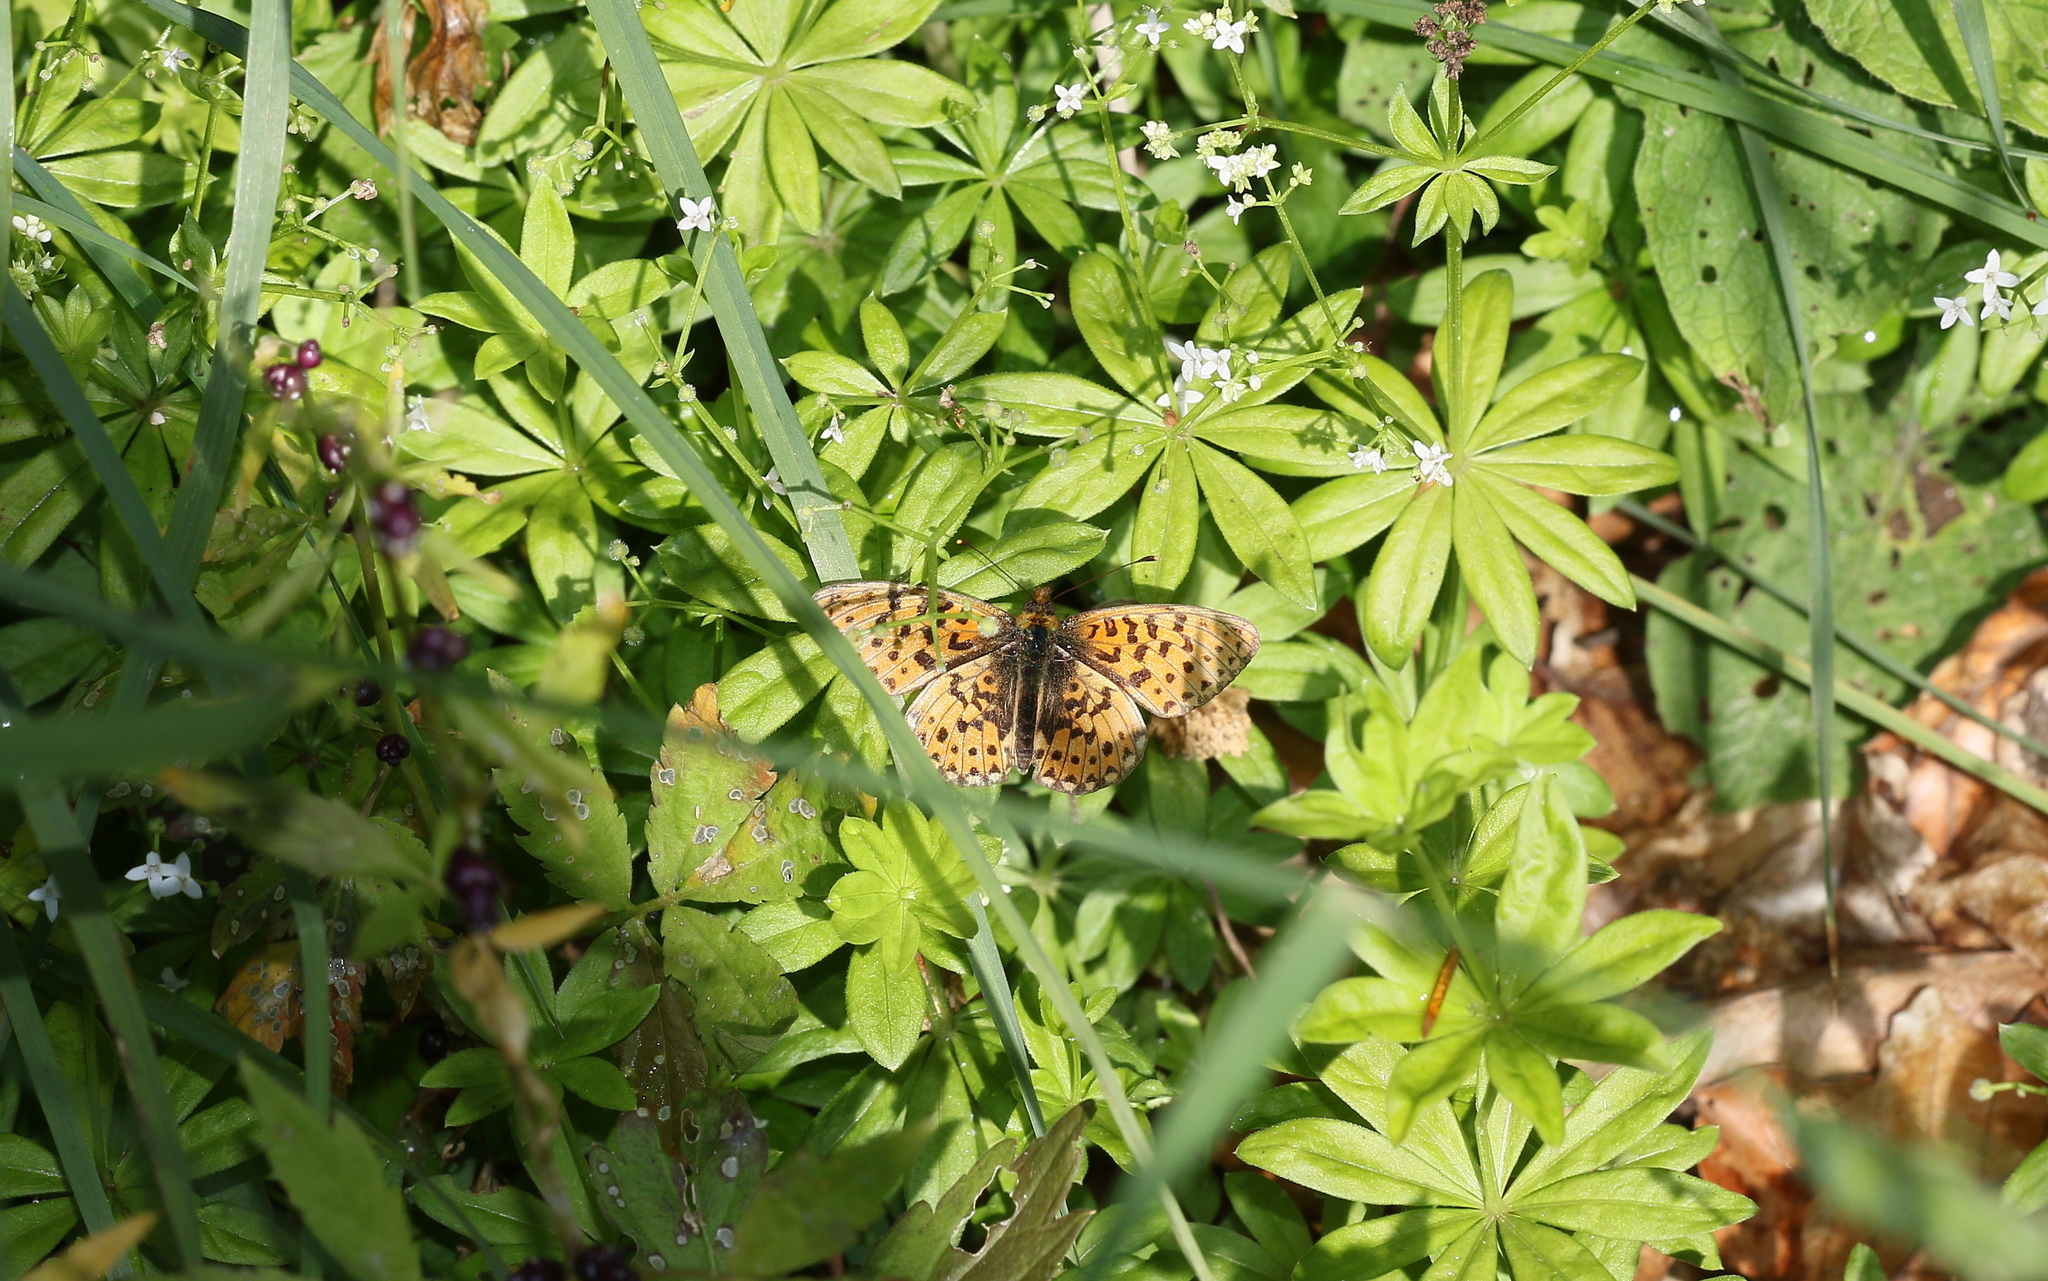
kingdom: Animalia
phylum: Arthropoda
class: Insecta
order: Lepidoptera
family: Nymphalidae
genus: Clossiana
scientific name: Clossiana euphrosyne
